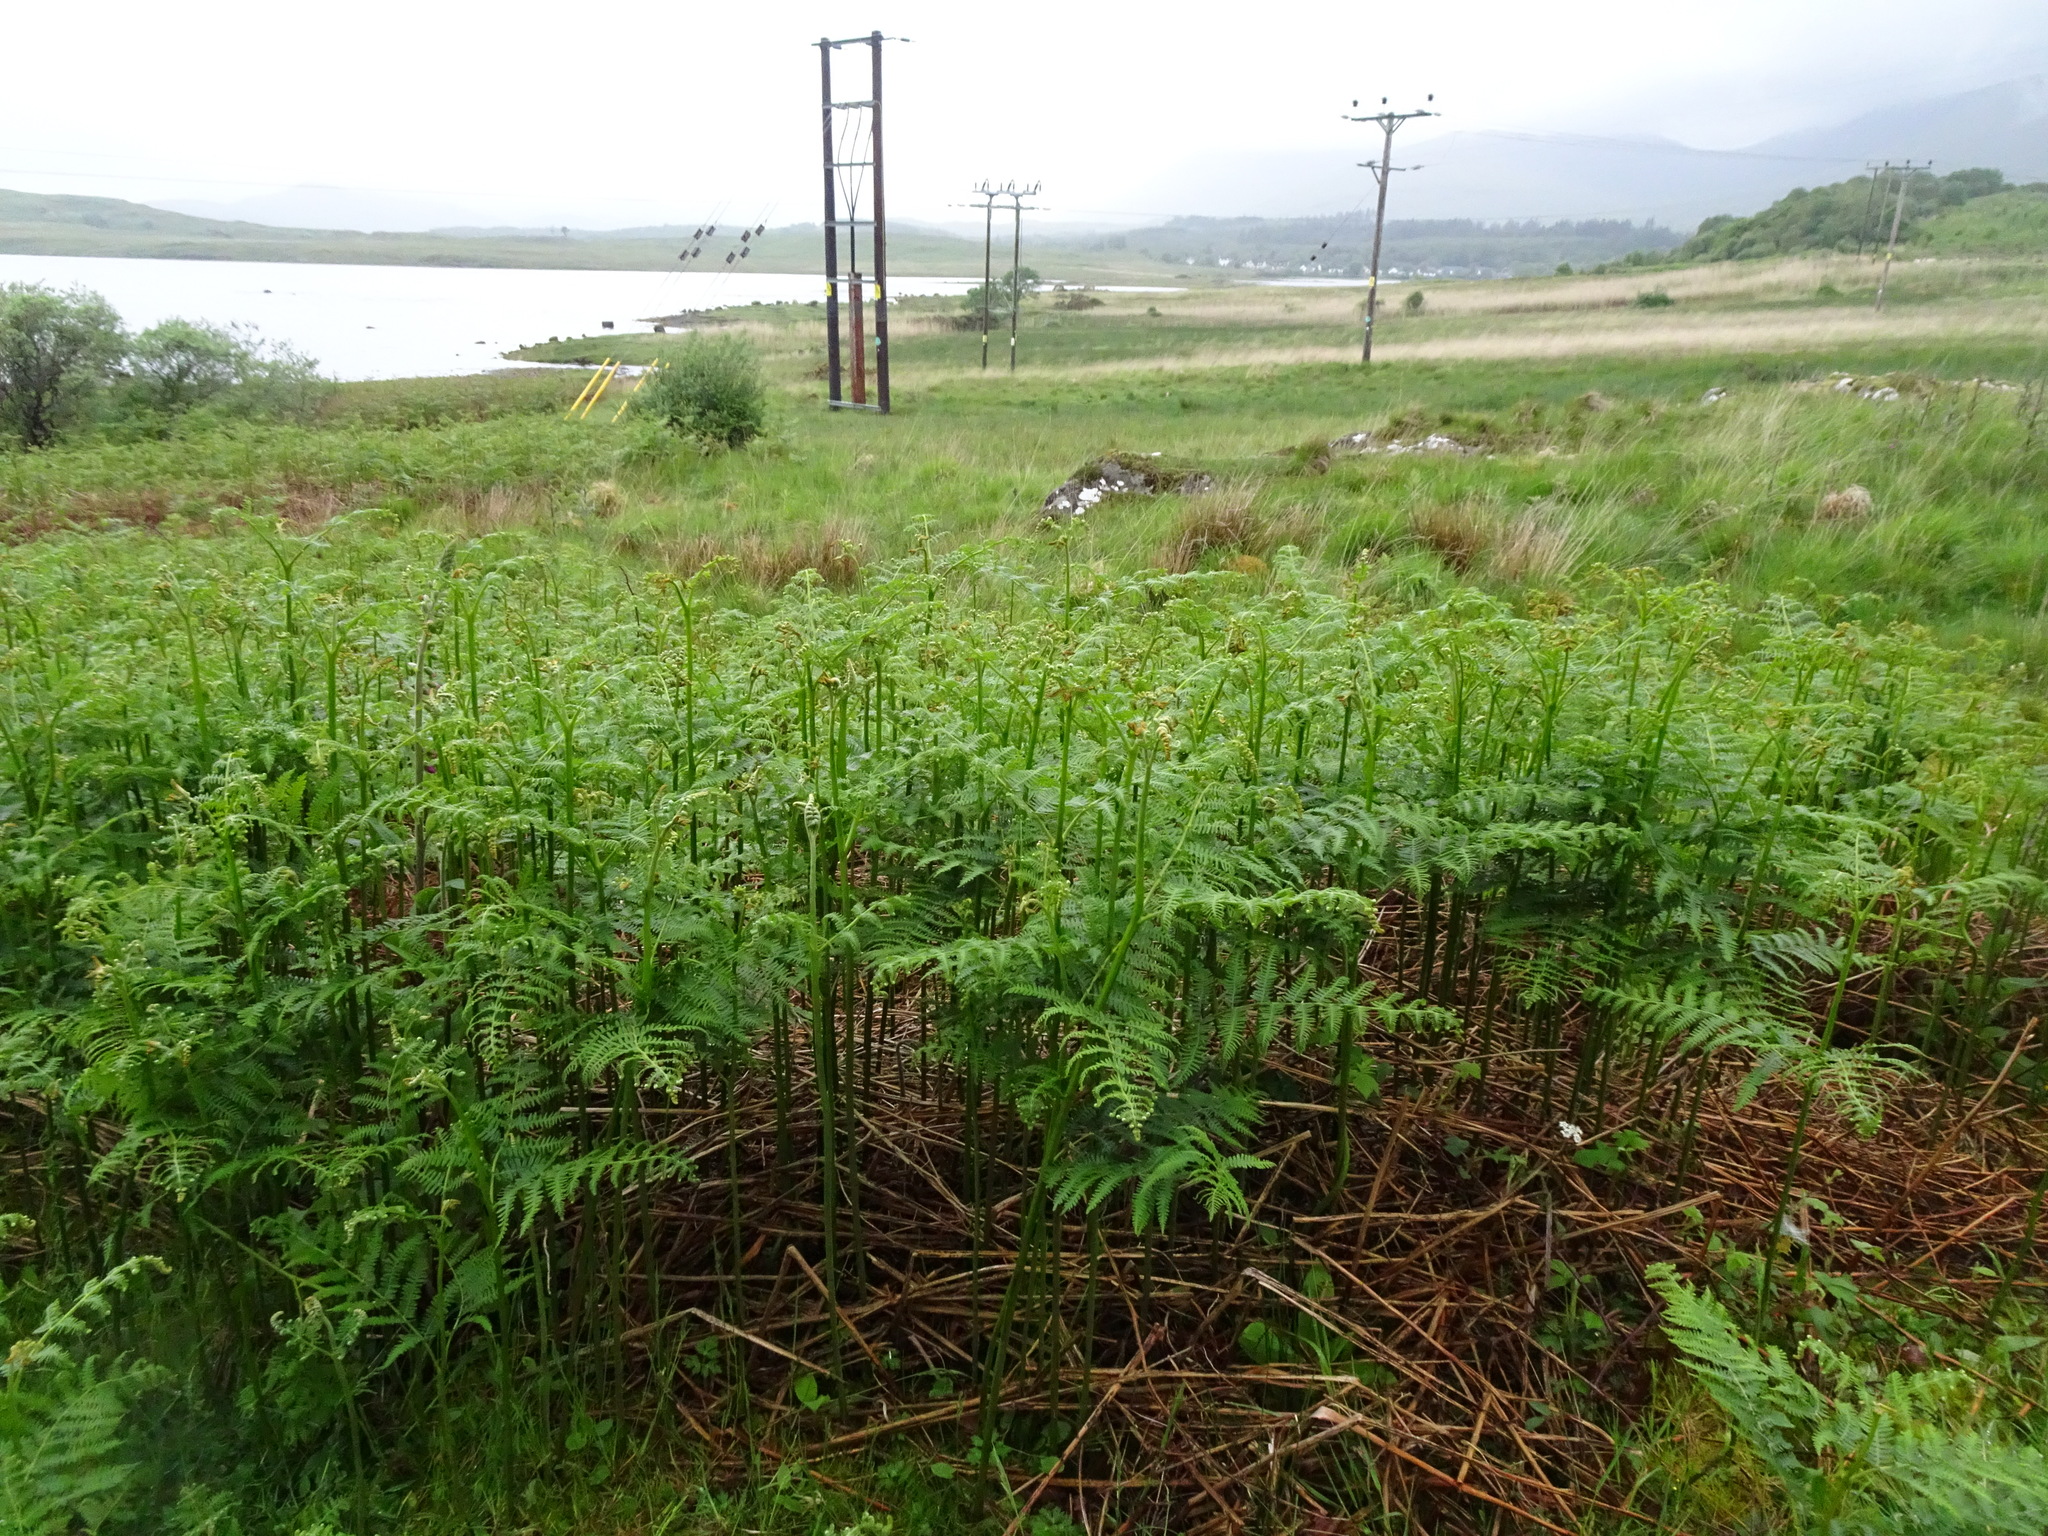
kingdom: Plantae
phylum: Tracheophyta
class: Polypodiopsida
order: Polypodiales
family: Dennstaedtiaceae
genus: Pteridium
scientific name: Pteridium aquilinum
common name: Bracken
